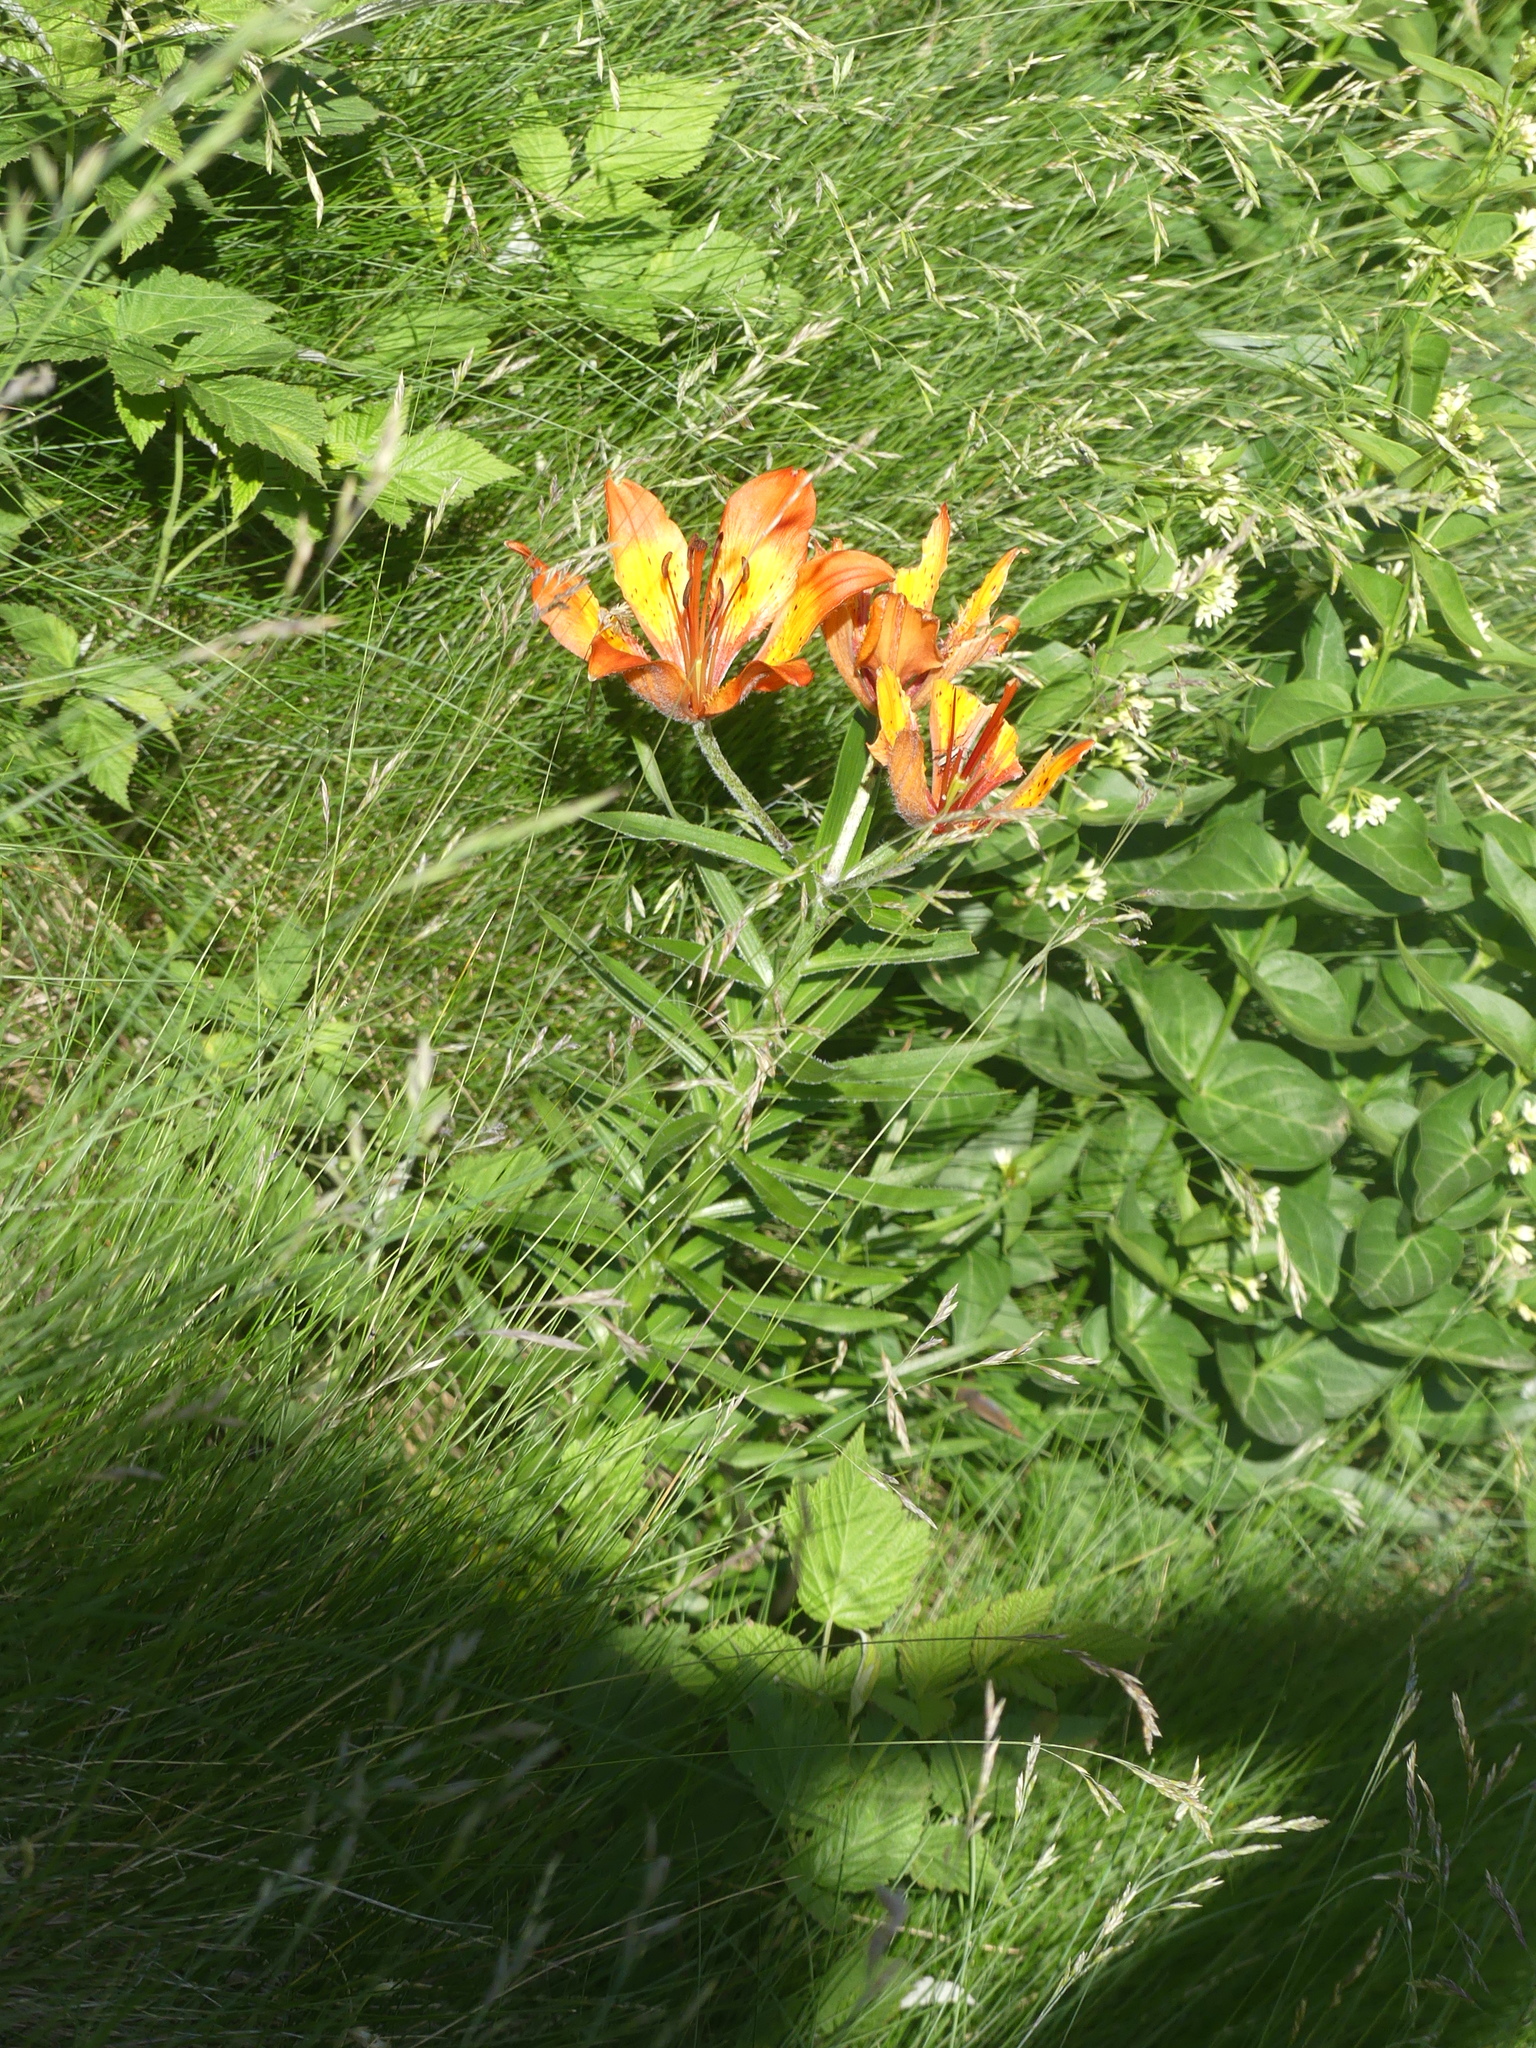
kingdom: Plantae
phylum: Tracheophyta
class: Liliopsida
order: Liliales
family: Liliaceae
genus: Lilium
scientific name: Lilium bulbiferum
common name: Orange lily
